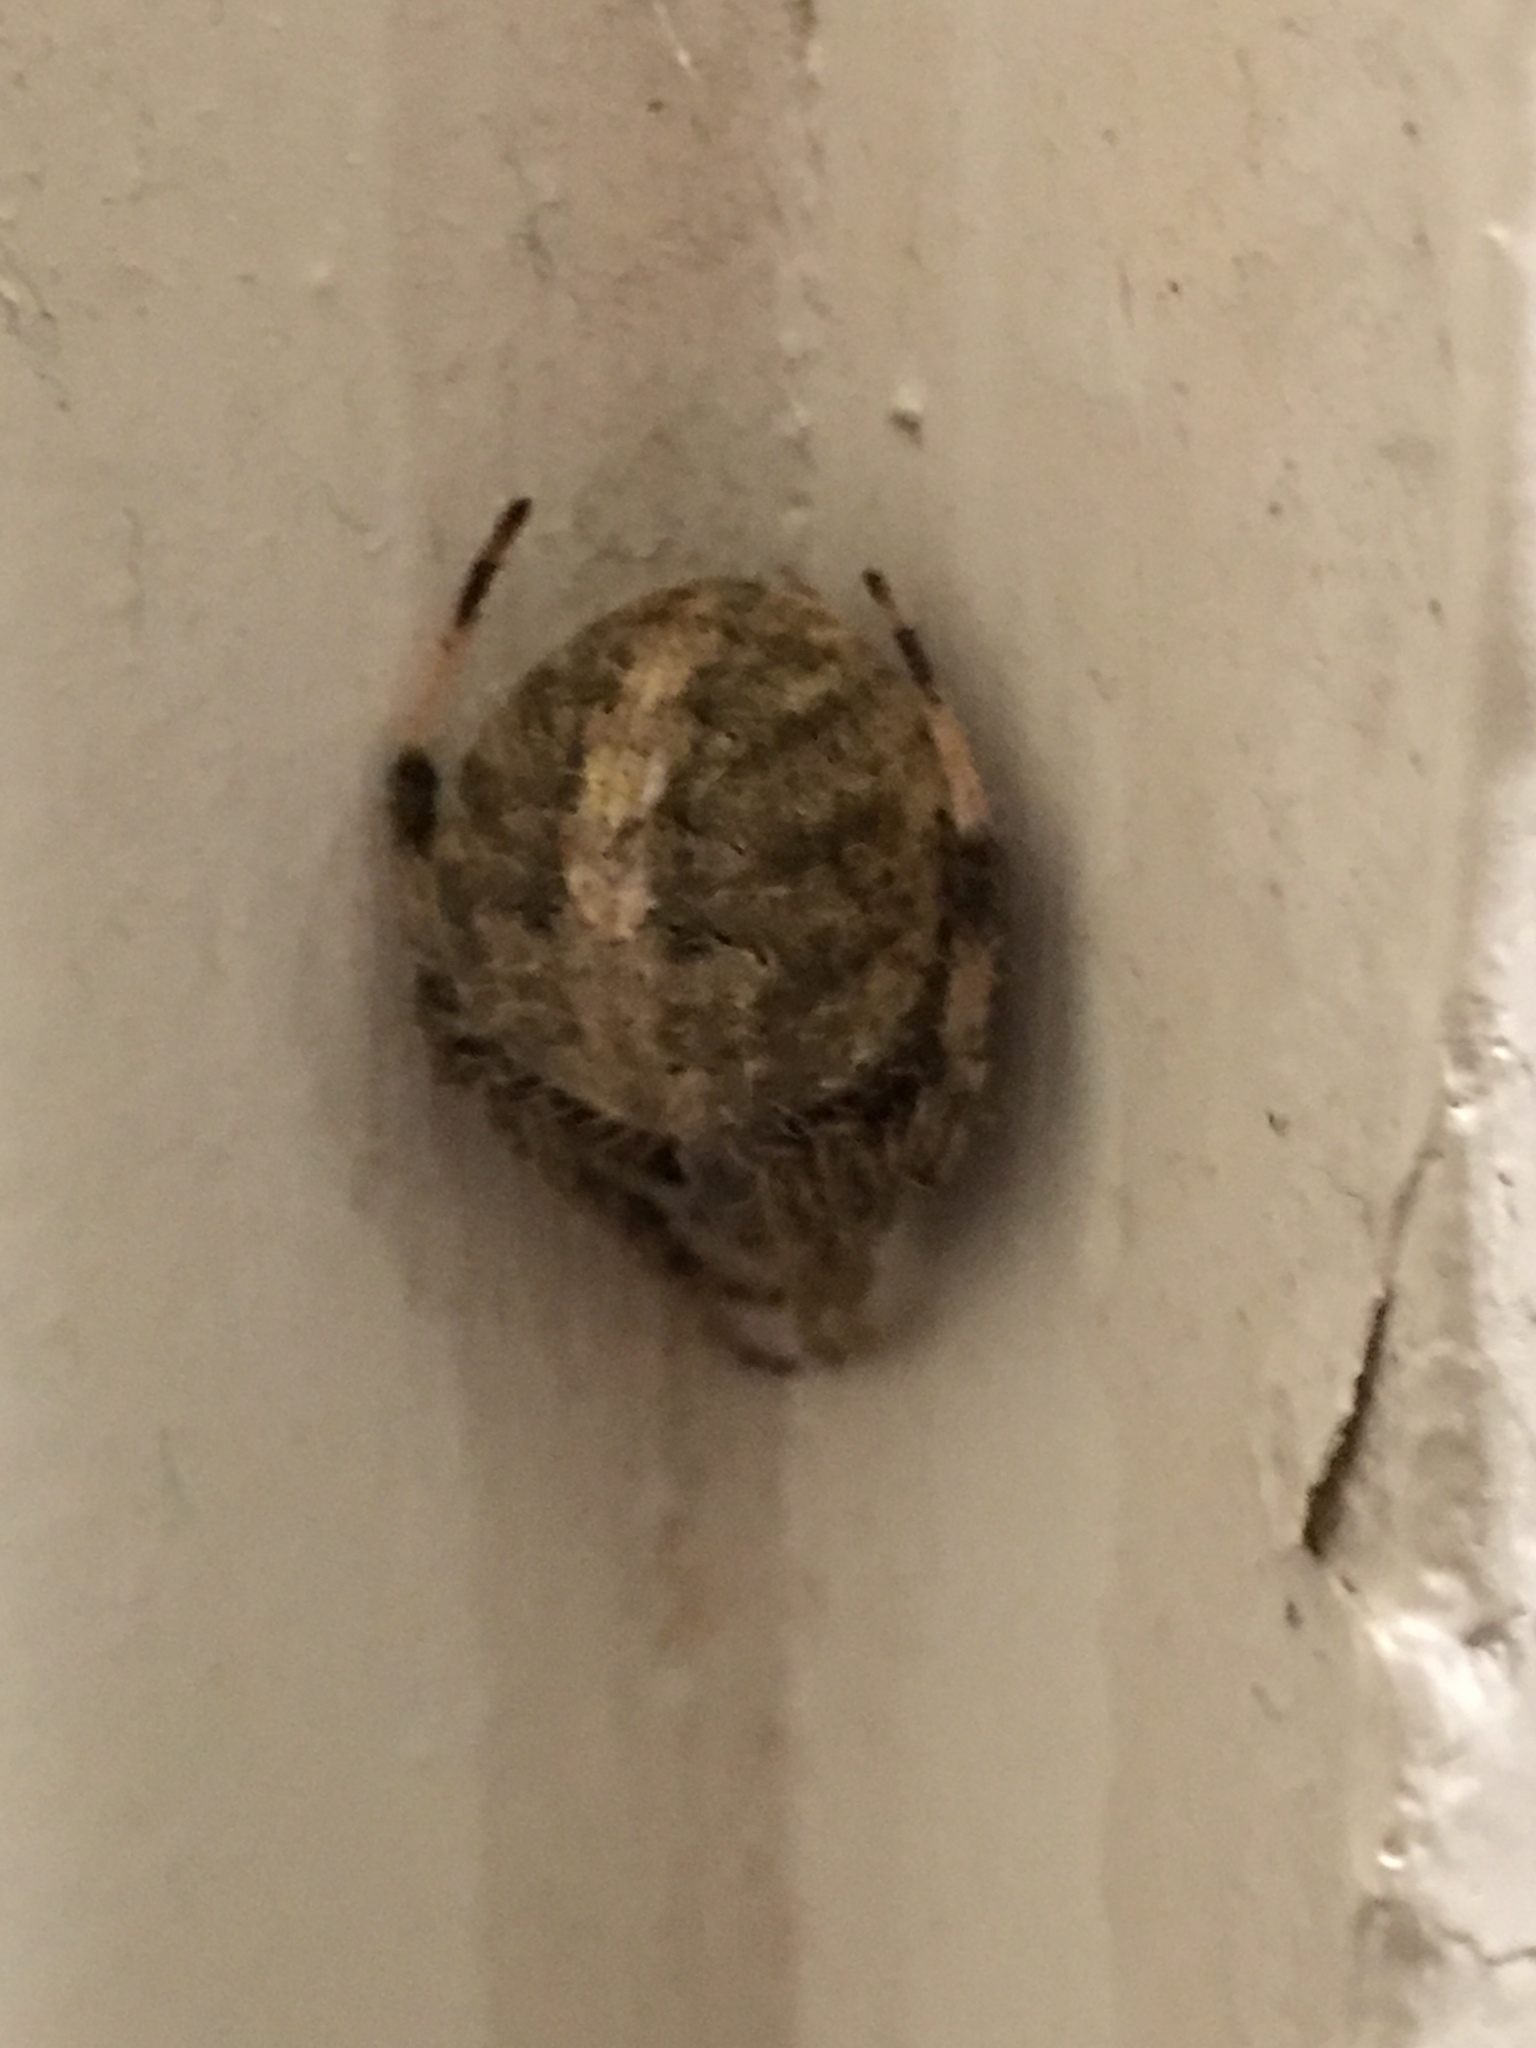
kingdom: Animalia
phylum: Arthropoda
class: Arachnida
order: Araneae
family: Araneidae
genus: Neoscona
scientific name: Neoscona crucifera
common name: Spotted orbweaver
